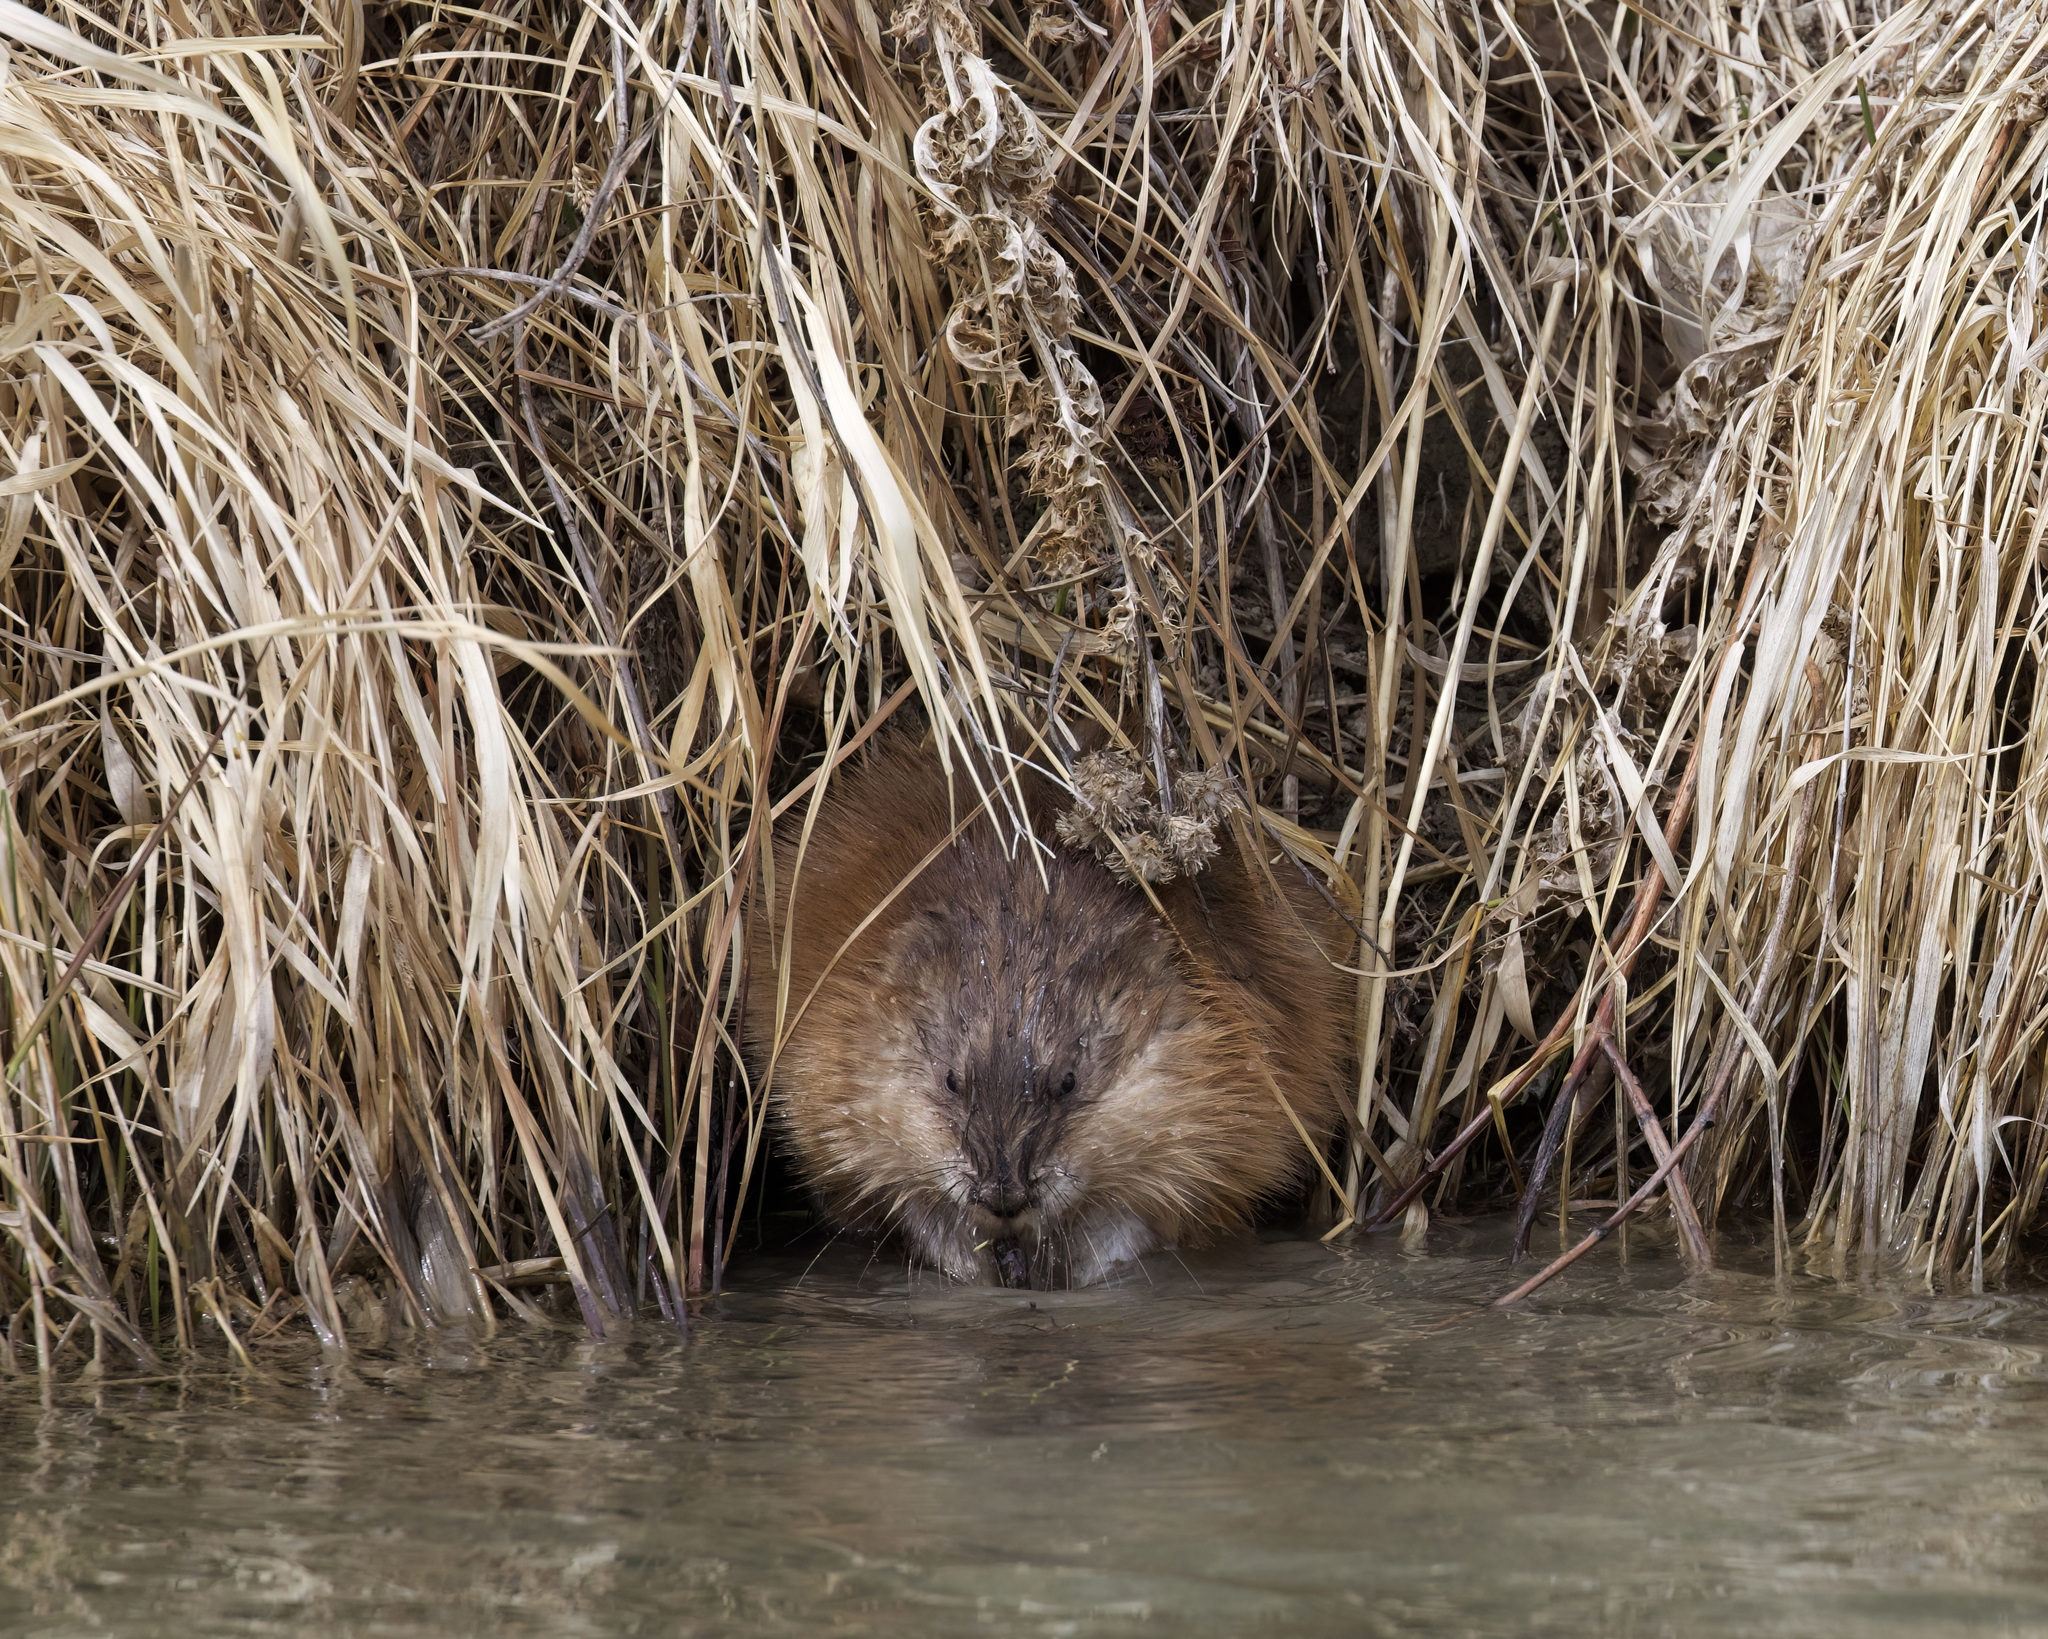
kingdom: Animalia
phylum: Chordata
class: Mammalia
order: Rodentia
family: Cricetidae
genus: Ondatra
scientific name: Ondatra zibethicus
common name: Muskrat
